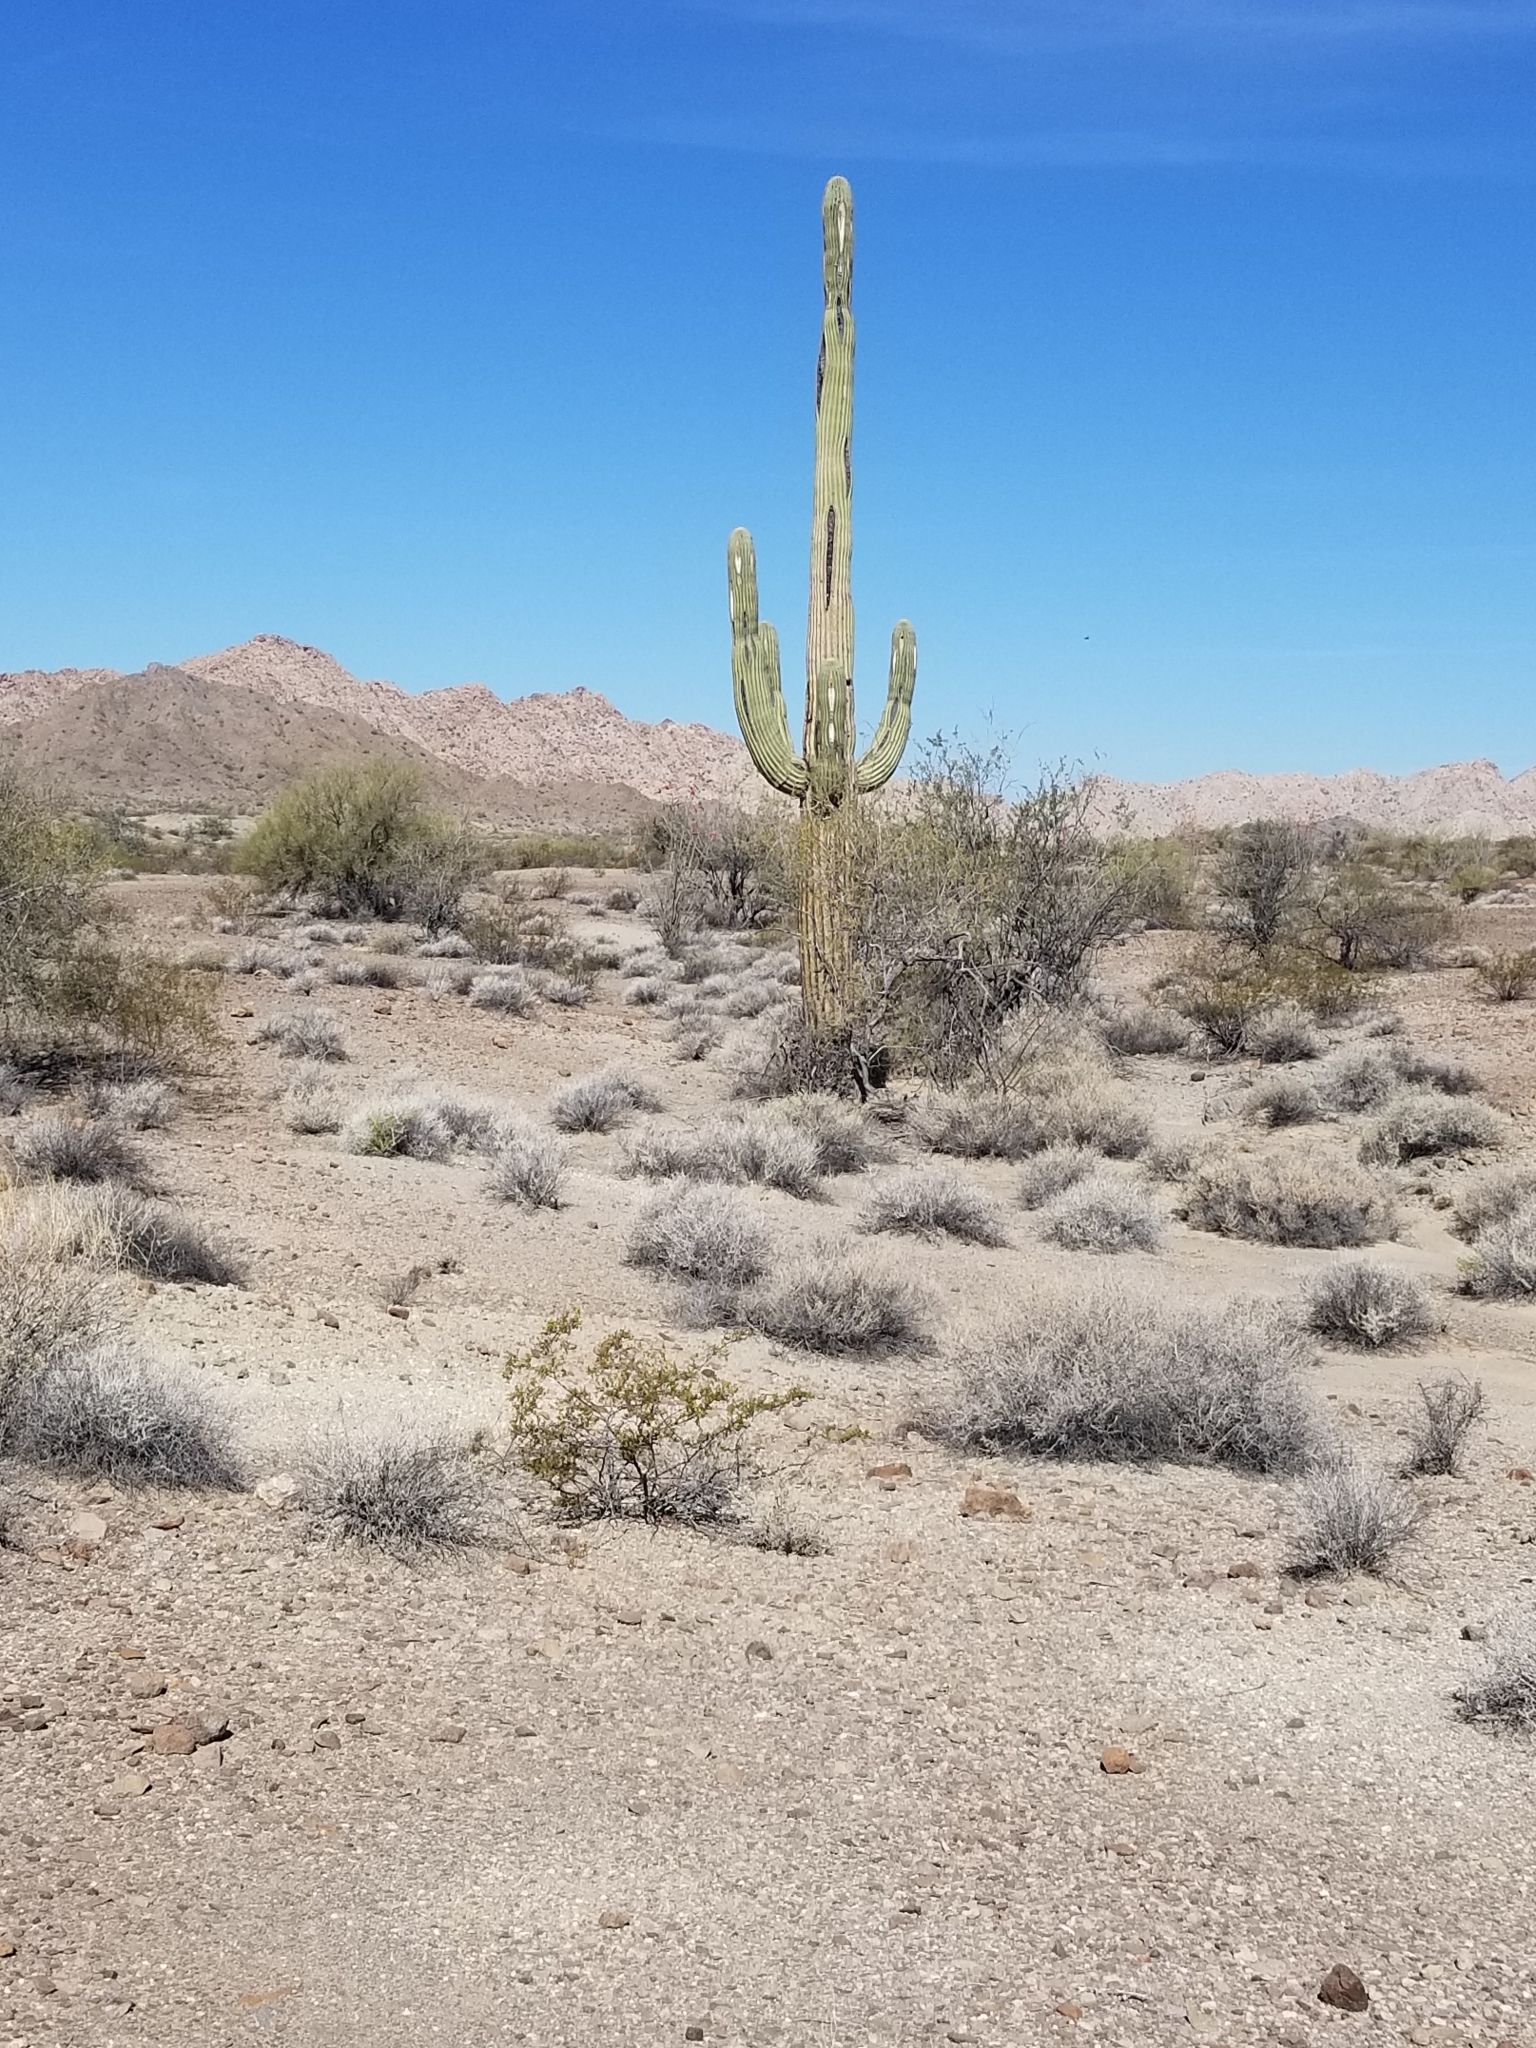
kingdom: Plantae
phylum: Tracheophyta
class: Magnoliopsida
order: Caryophyllales
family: Cactaceae
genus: Carnegiea
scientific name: Carnegiea gigantea
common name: Saguaro
